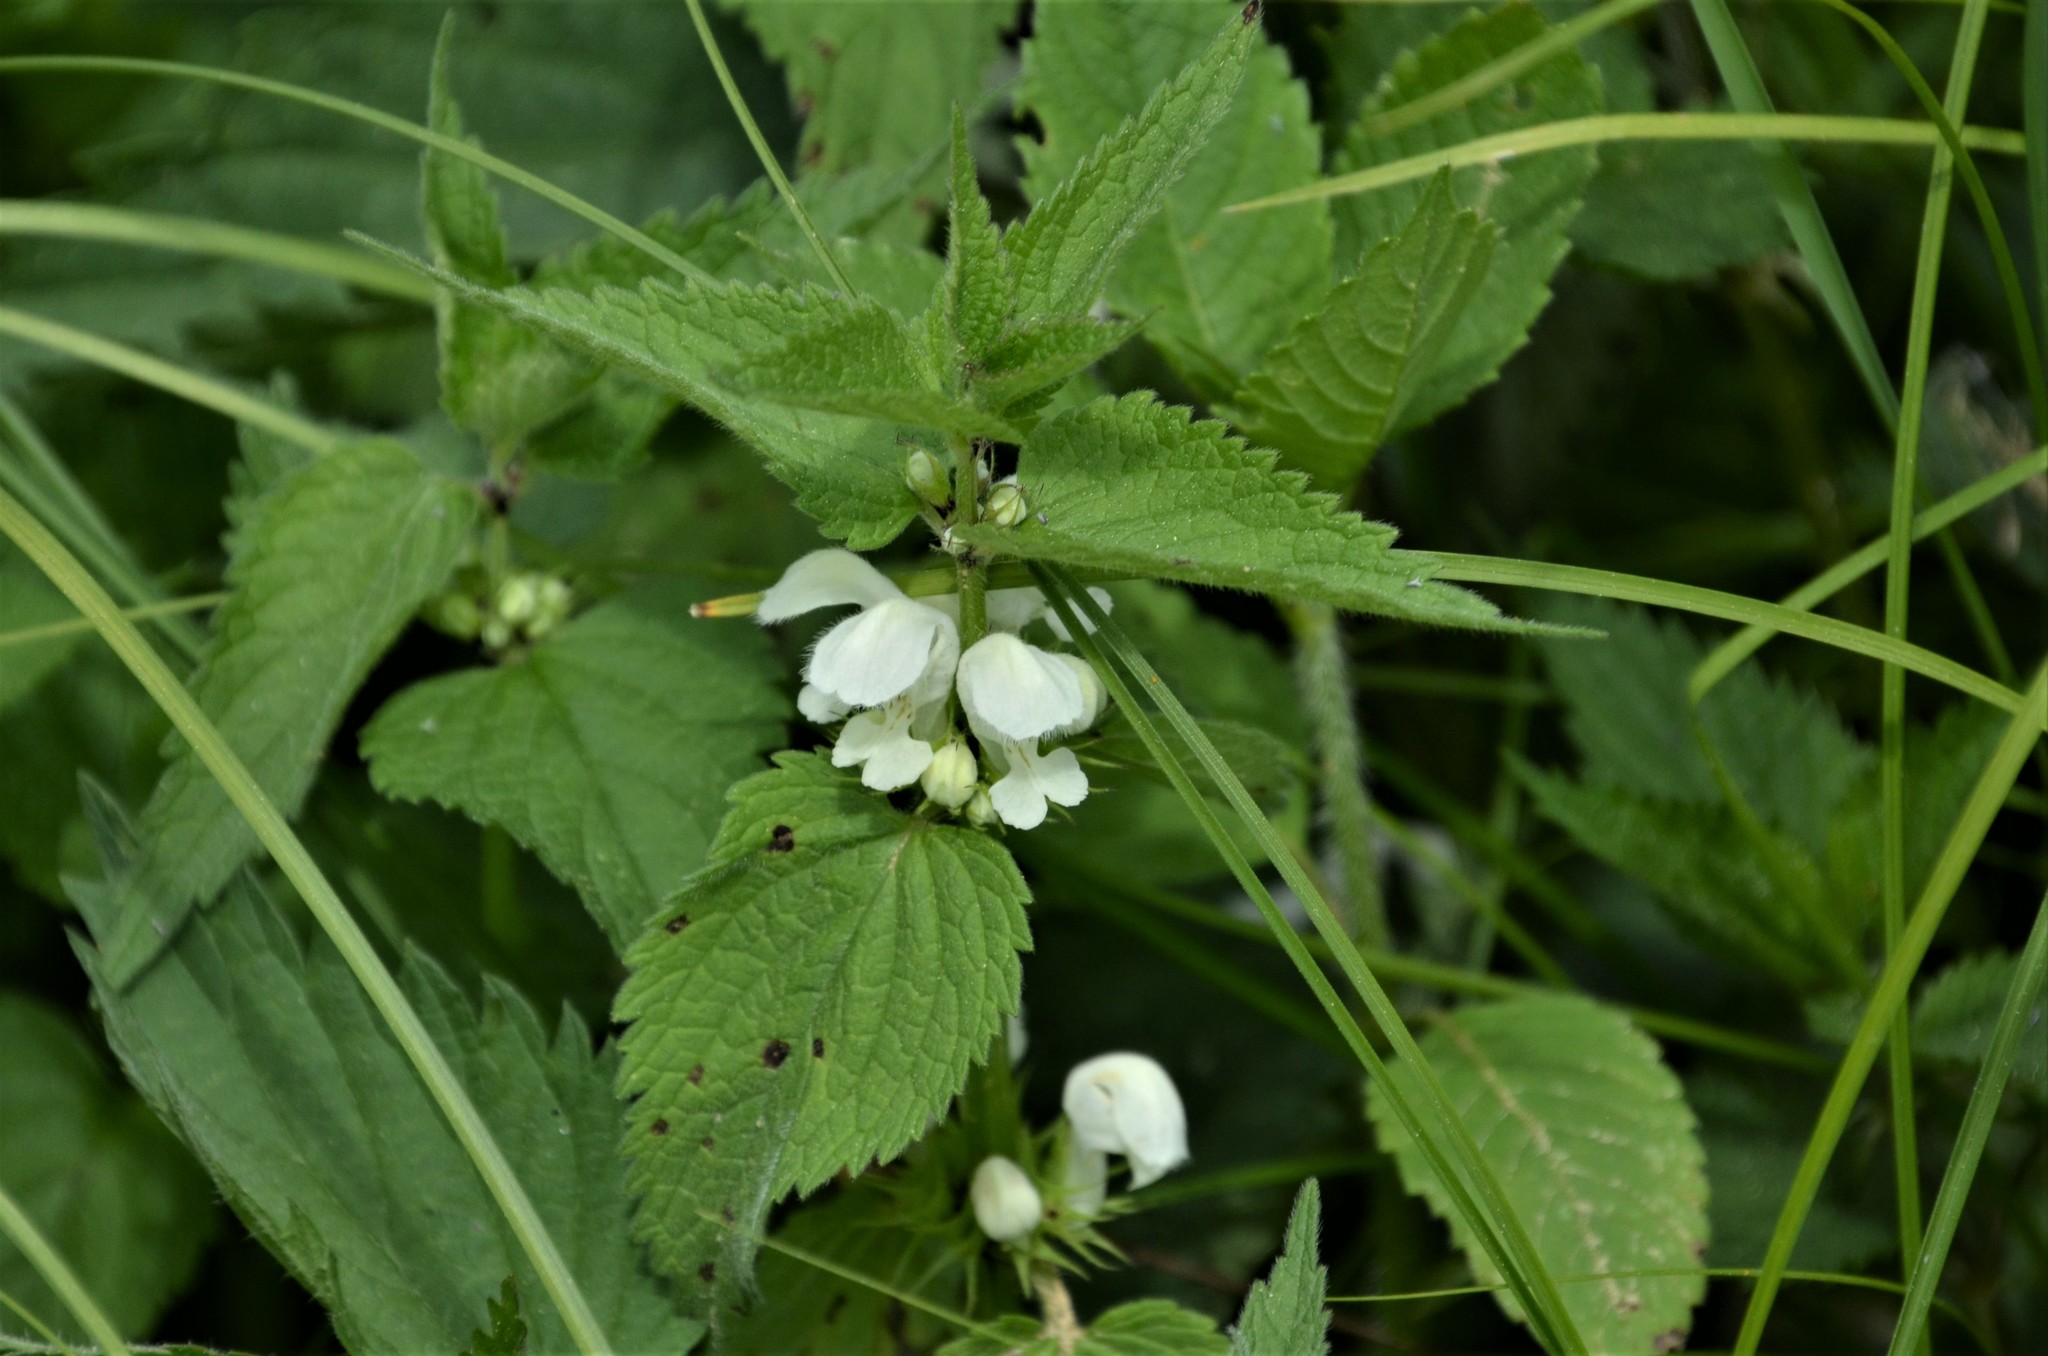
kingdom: Plantae
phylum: Tracheophyta
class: Magnoliopsida
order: Lamiales
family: Lamiaceae
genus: Lamium
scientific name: Lamium album
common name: White dead-nettle
